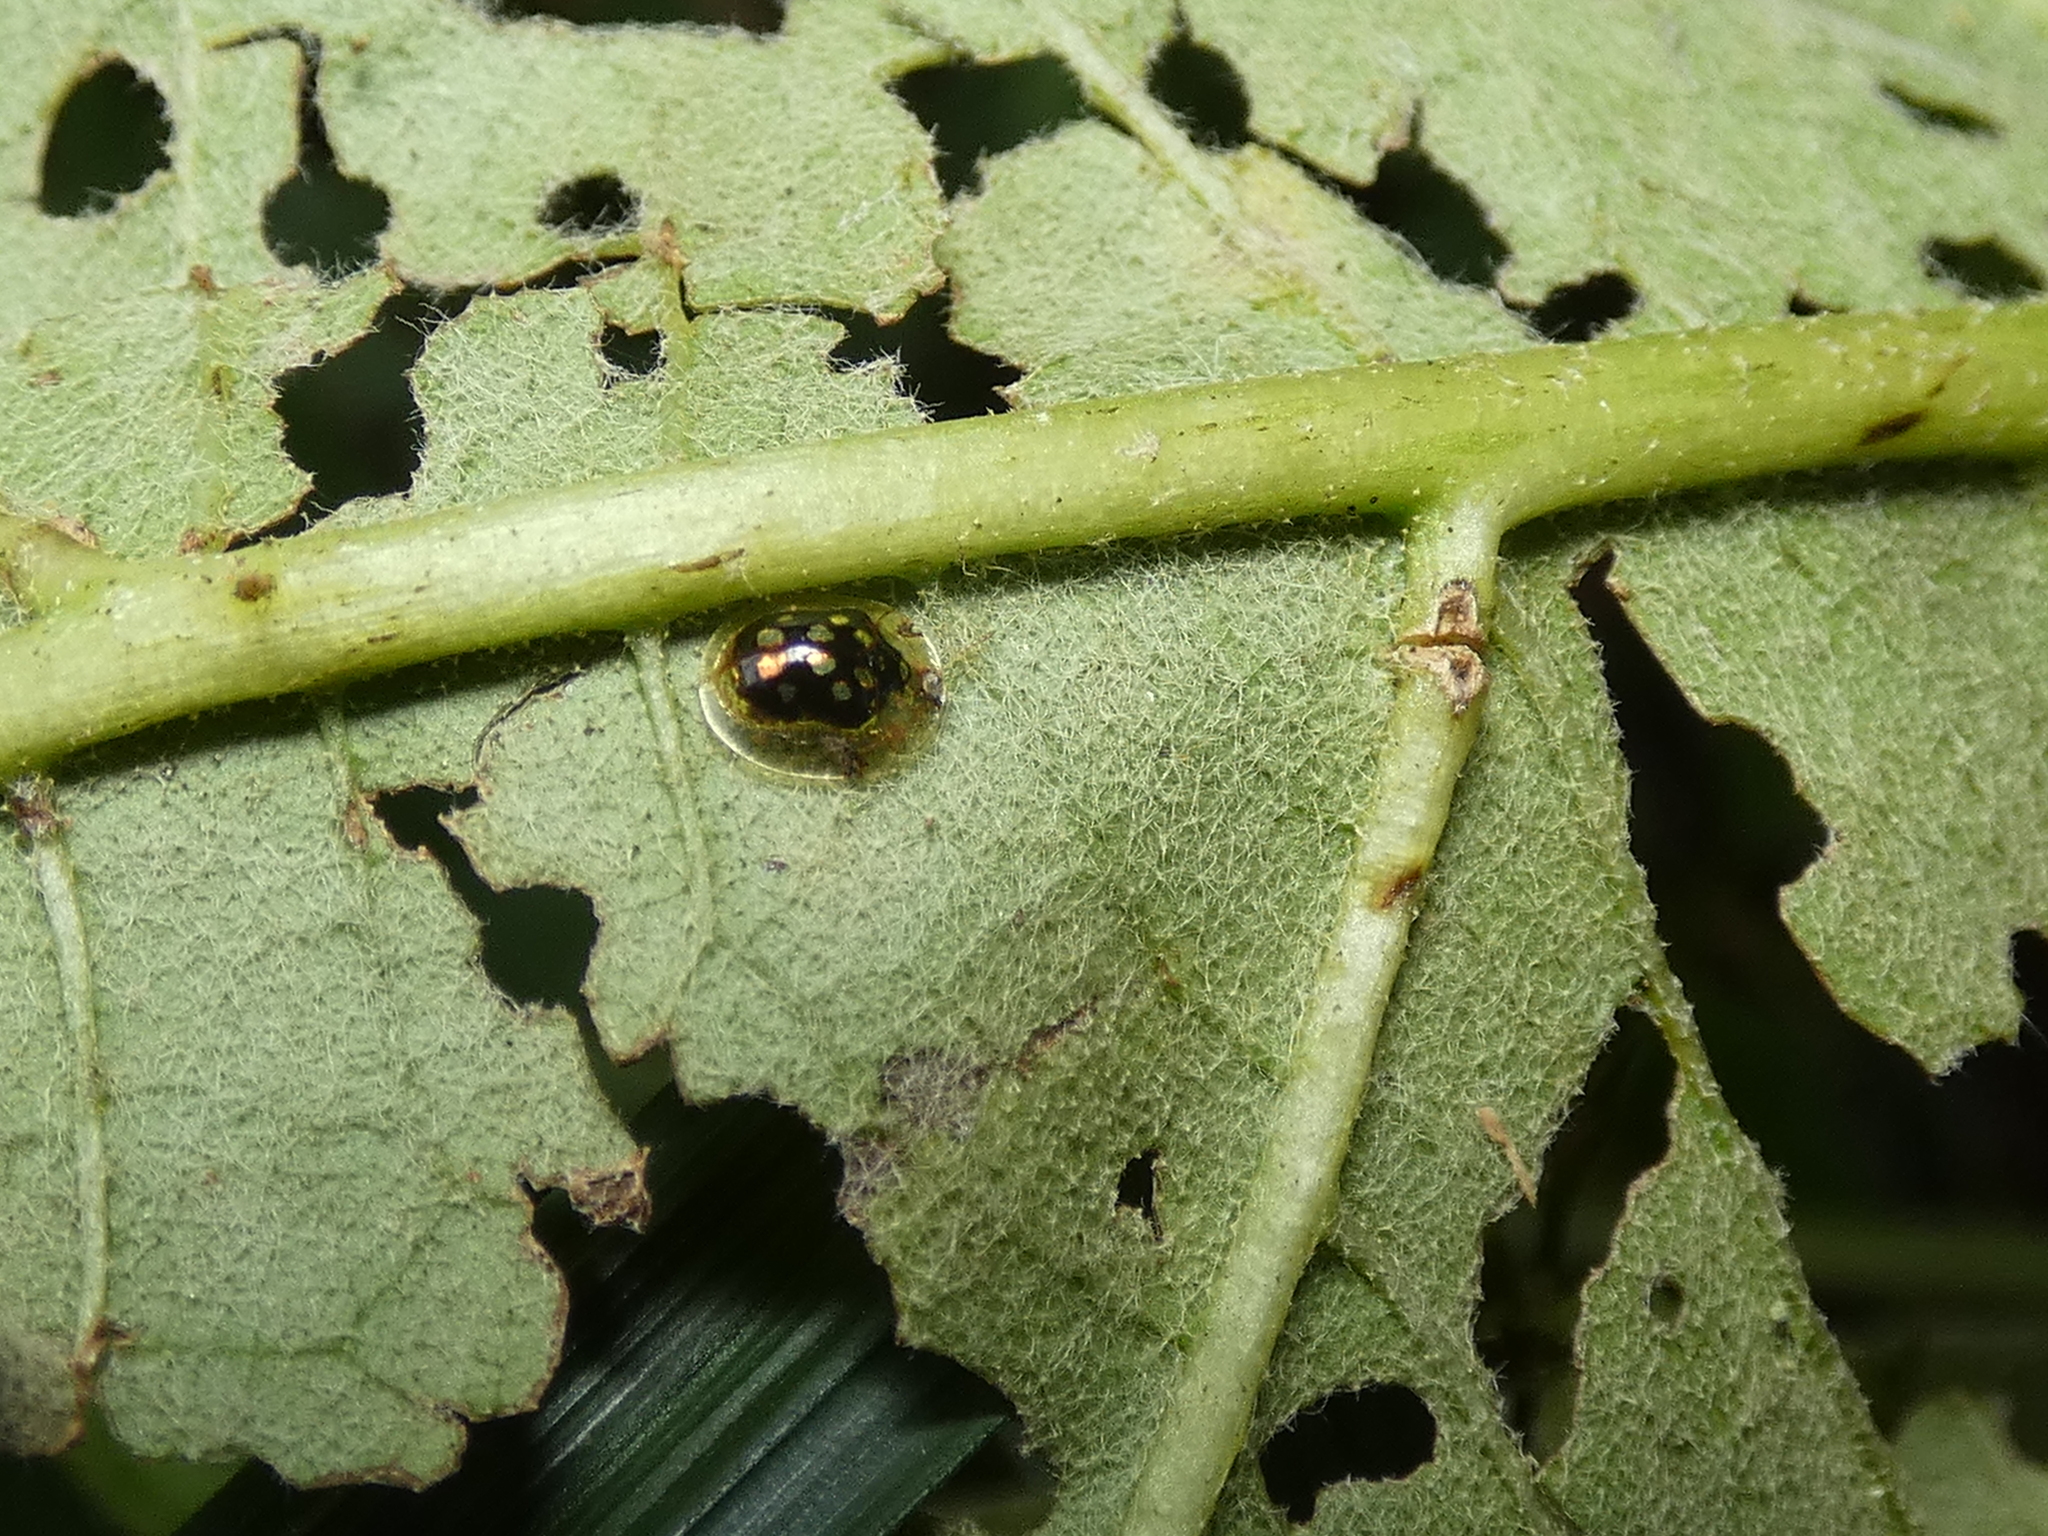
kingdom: Animalia
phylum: Arthropoda
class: Insecta
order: Coleoptera
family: Chrysomelidae
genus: Plagiometriona
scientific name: Plagiometriona microcera
